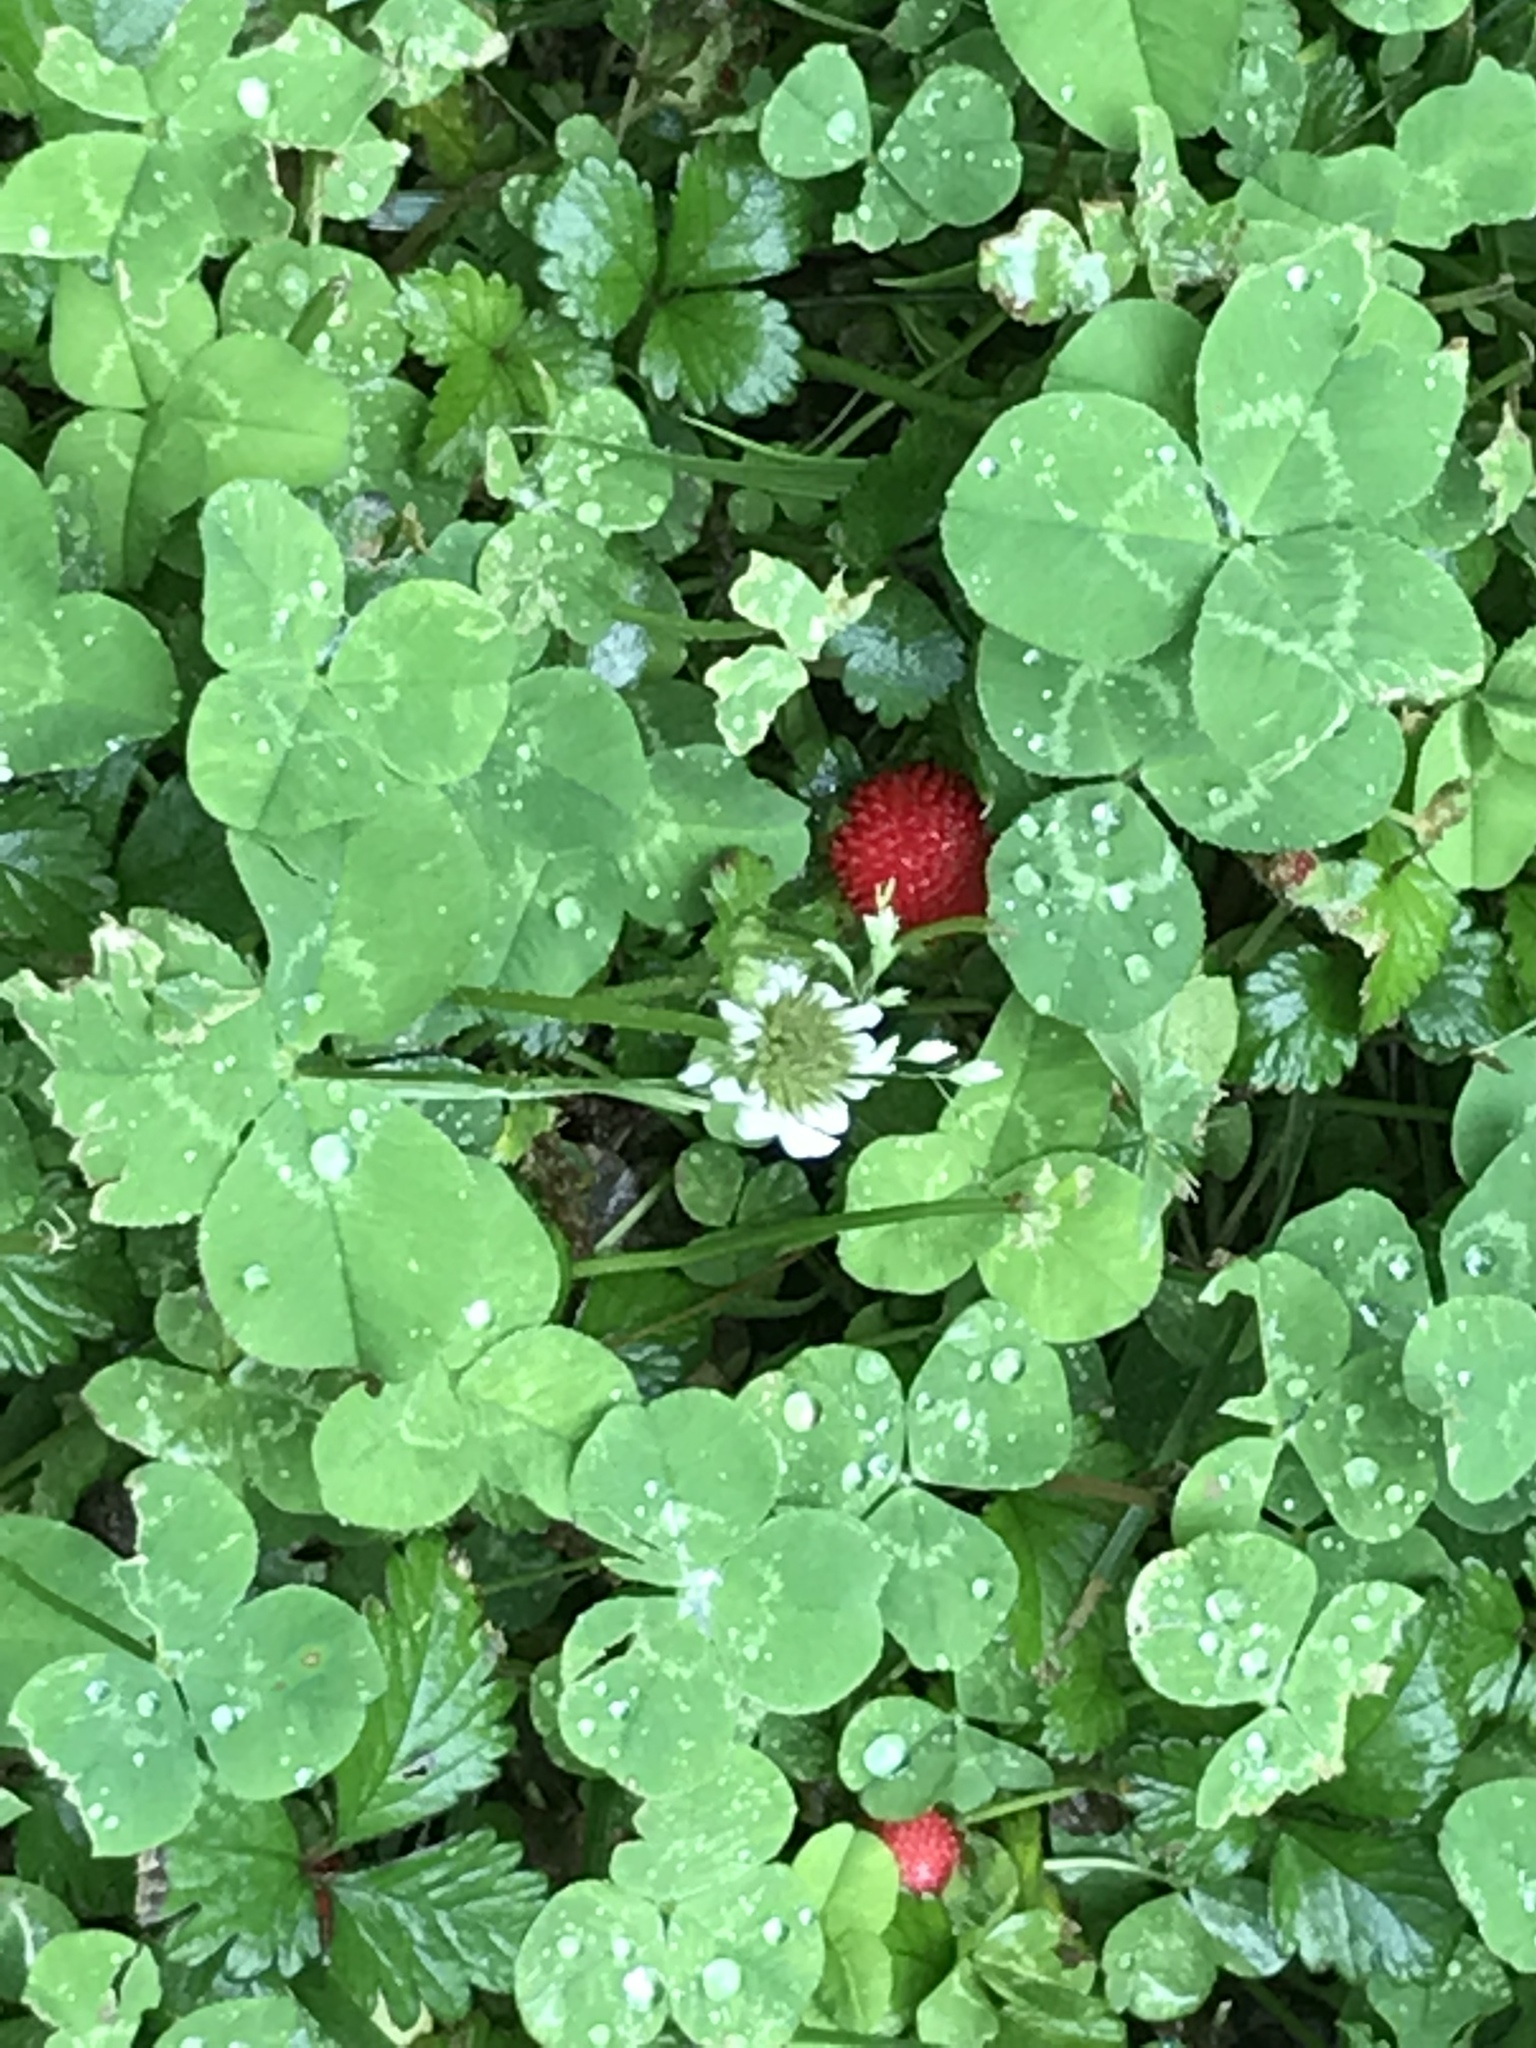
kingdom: Plantae
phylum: Tracheophyta
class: Magnoliopsida
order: Rosales
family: Rosaceae
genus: Potentilla
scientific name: Potentilla indica
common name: Yellow-flowered strawberry
